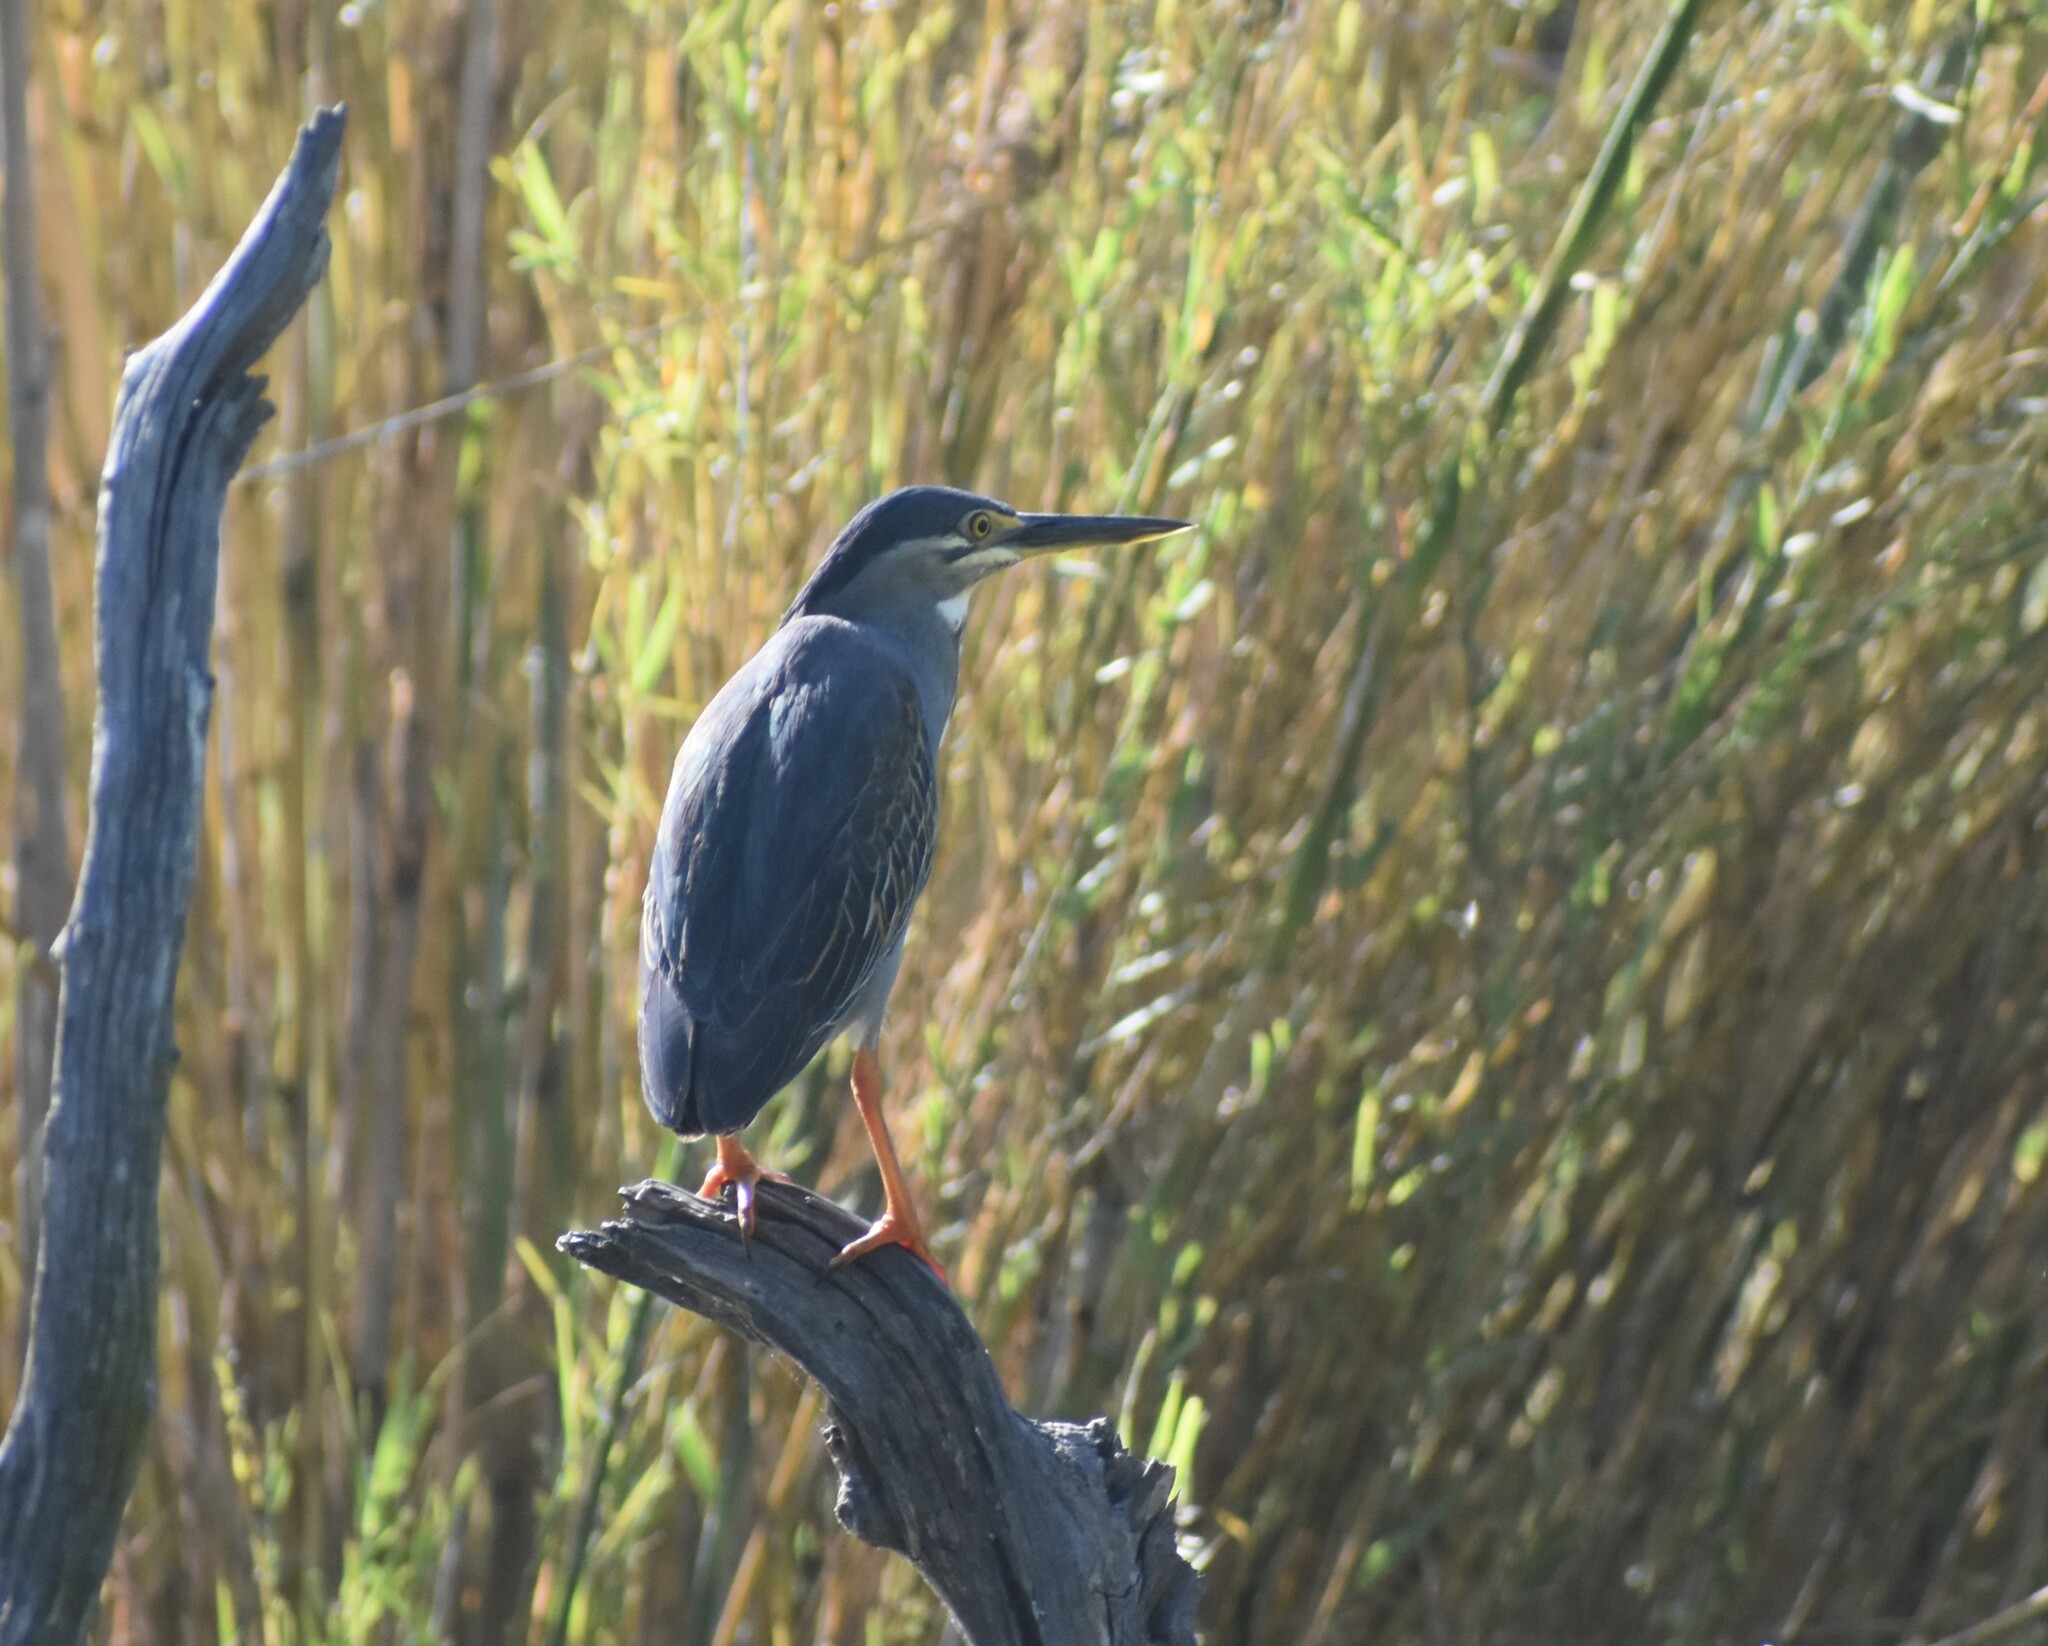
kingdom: Animalia
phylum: Chordata
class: Aves
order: Pelecaniformes
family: Ardeidae
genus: Butorides
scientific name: Butorides striata
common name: Striated heron
